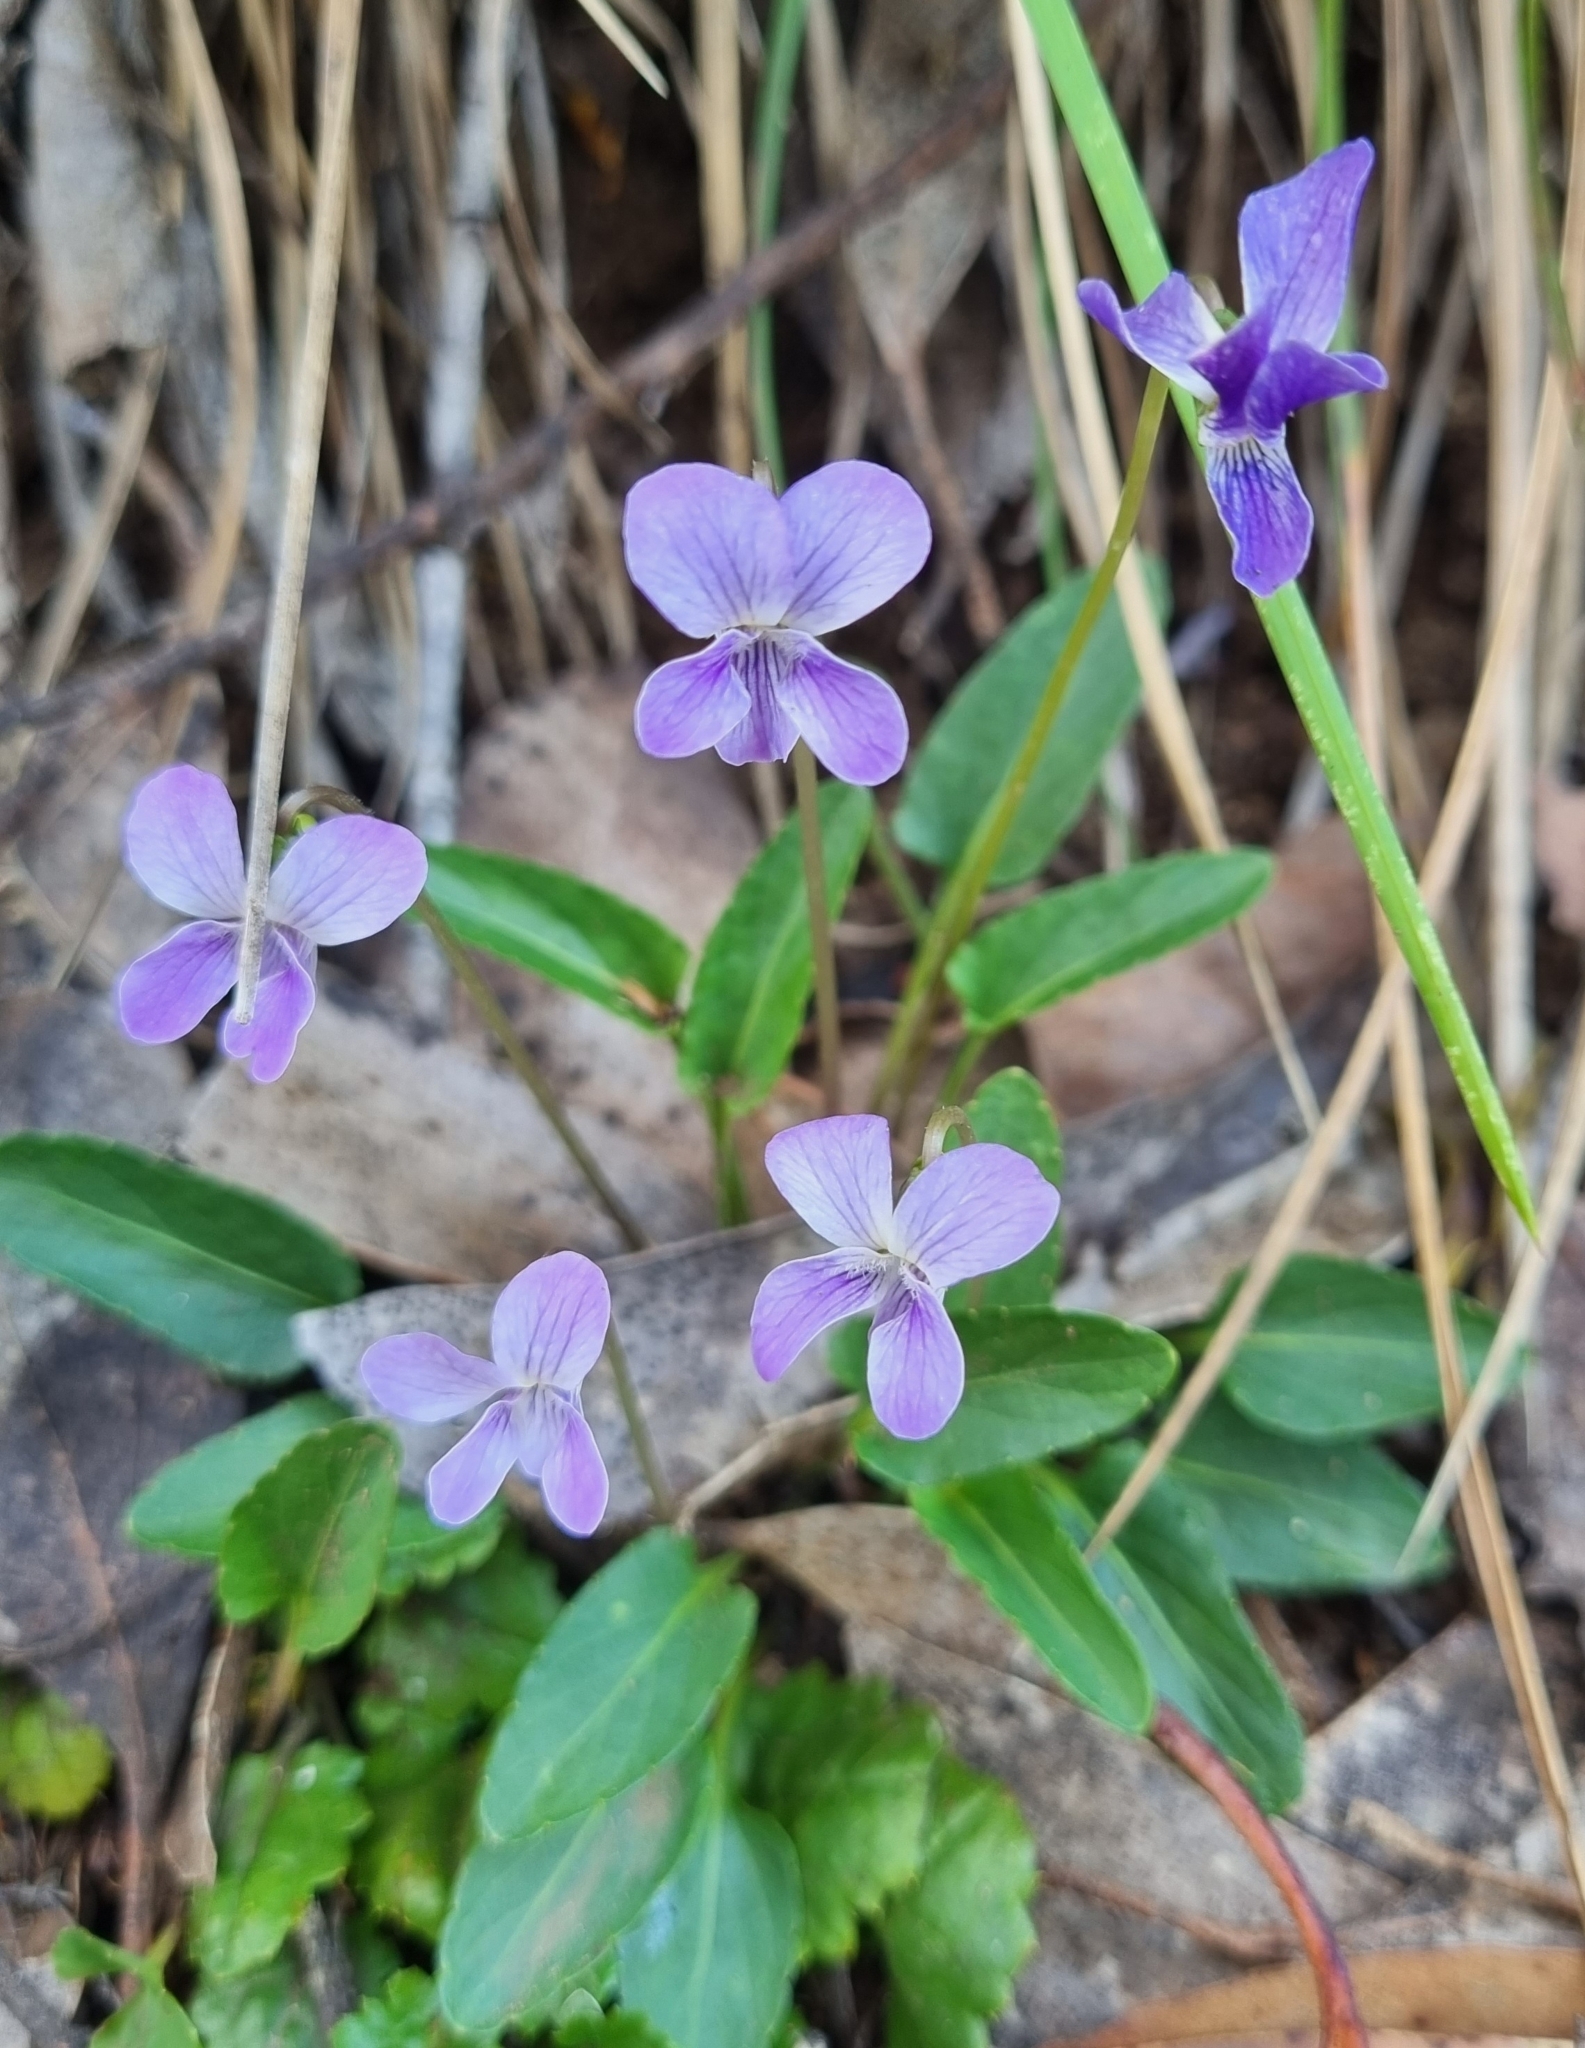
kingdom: Plantae
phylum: Tracheophyta
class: Magnoliopsida
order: Malpighiales
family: Violaceae
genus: Viola
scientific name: Viola betonicifolia
